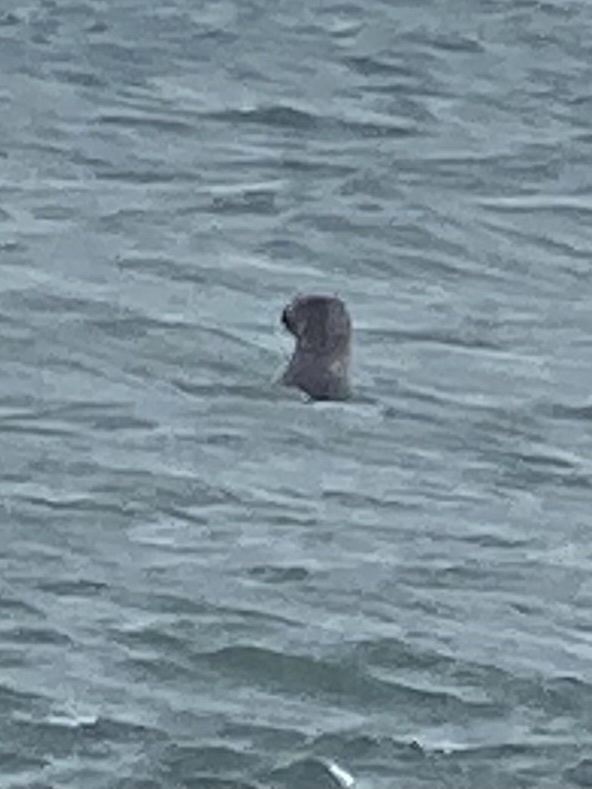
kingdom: Animalia
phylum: Chordata
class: Mammalia
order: Carnivora
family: Phocidae
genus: Phoca
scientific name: Phoca vitulina
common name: Harbor seal
